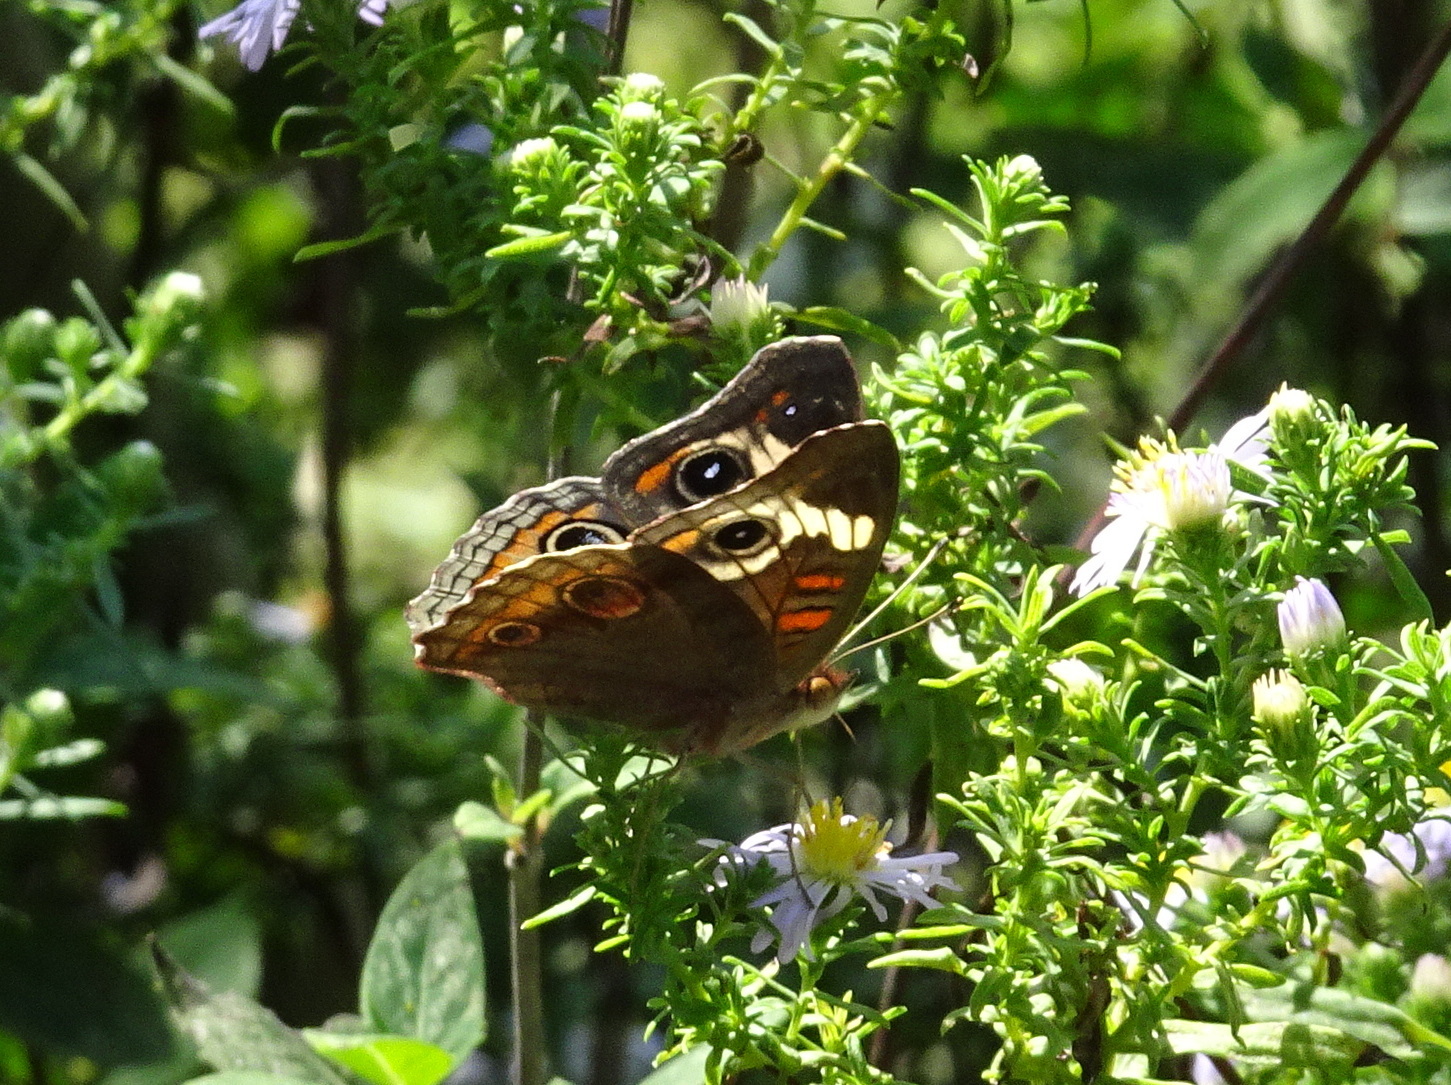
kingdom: Animalia
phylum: Arthropoda
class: Insecta
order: Lepidoptera
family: Nymphalidae
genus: Junonia
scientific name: Junonia coenia
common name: Common buckeye
